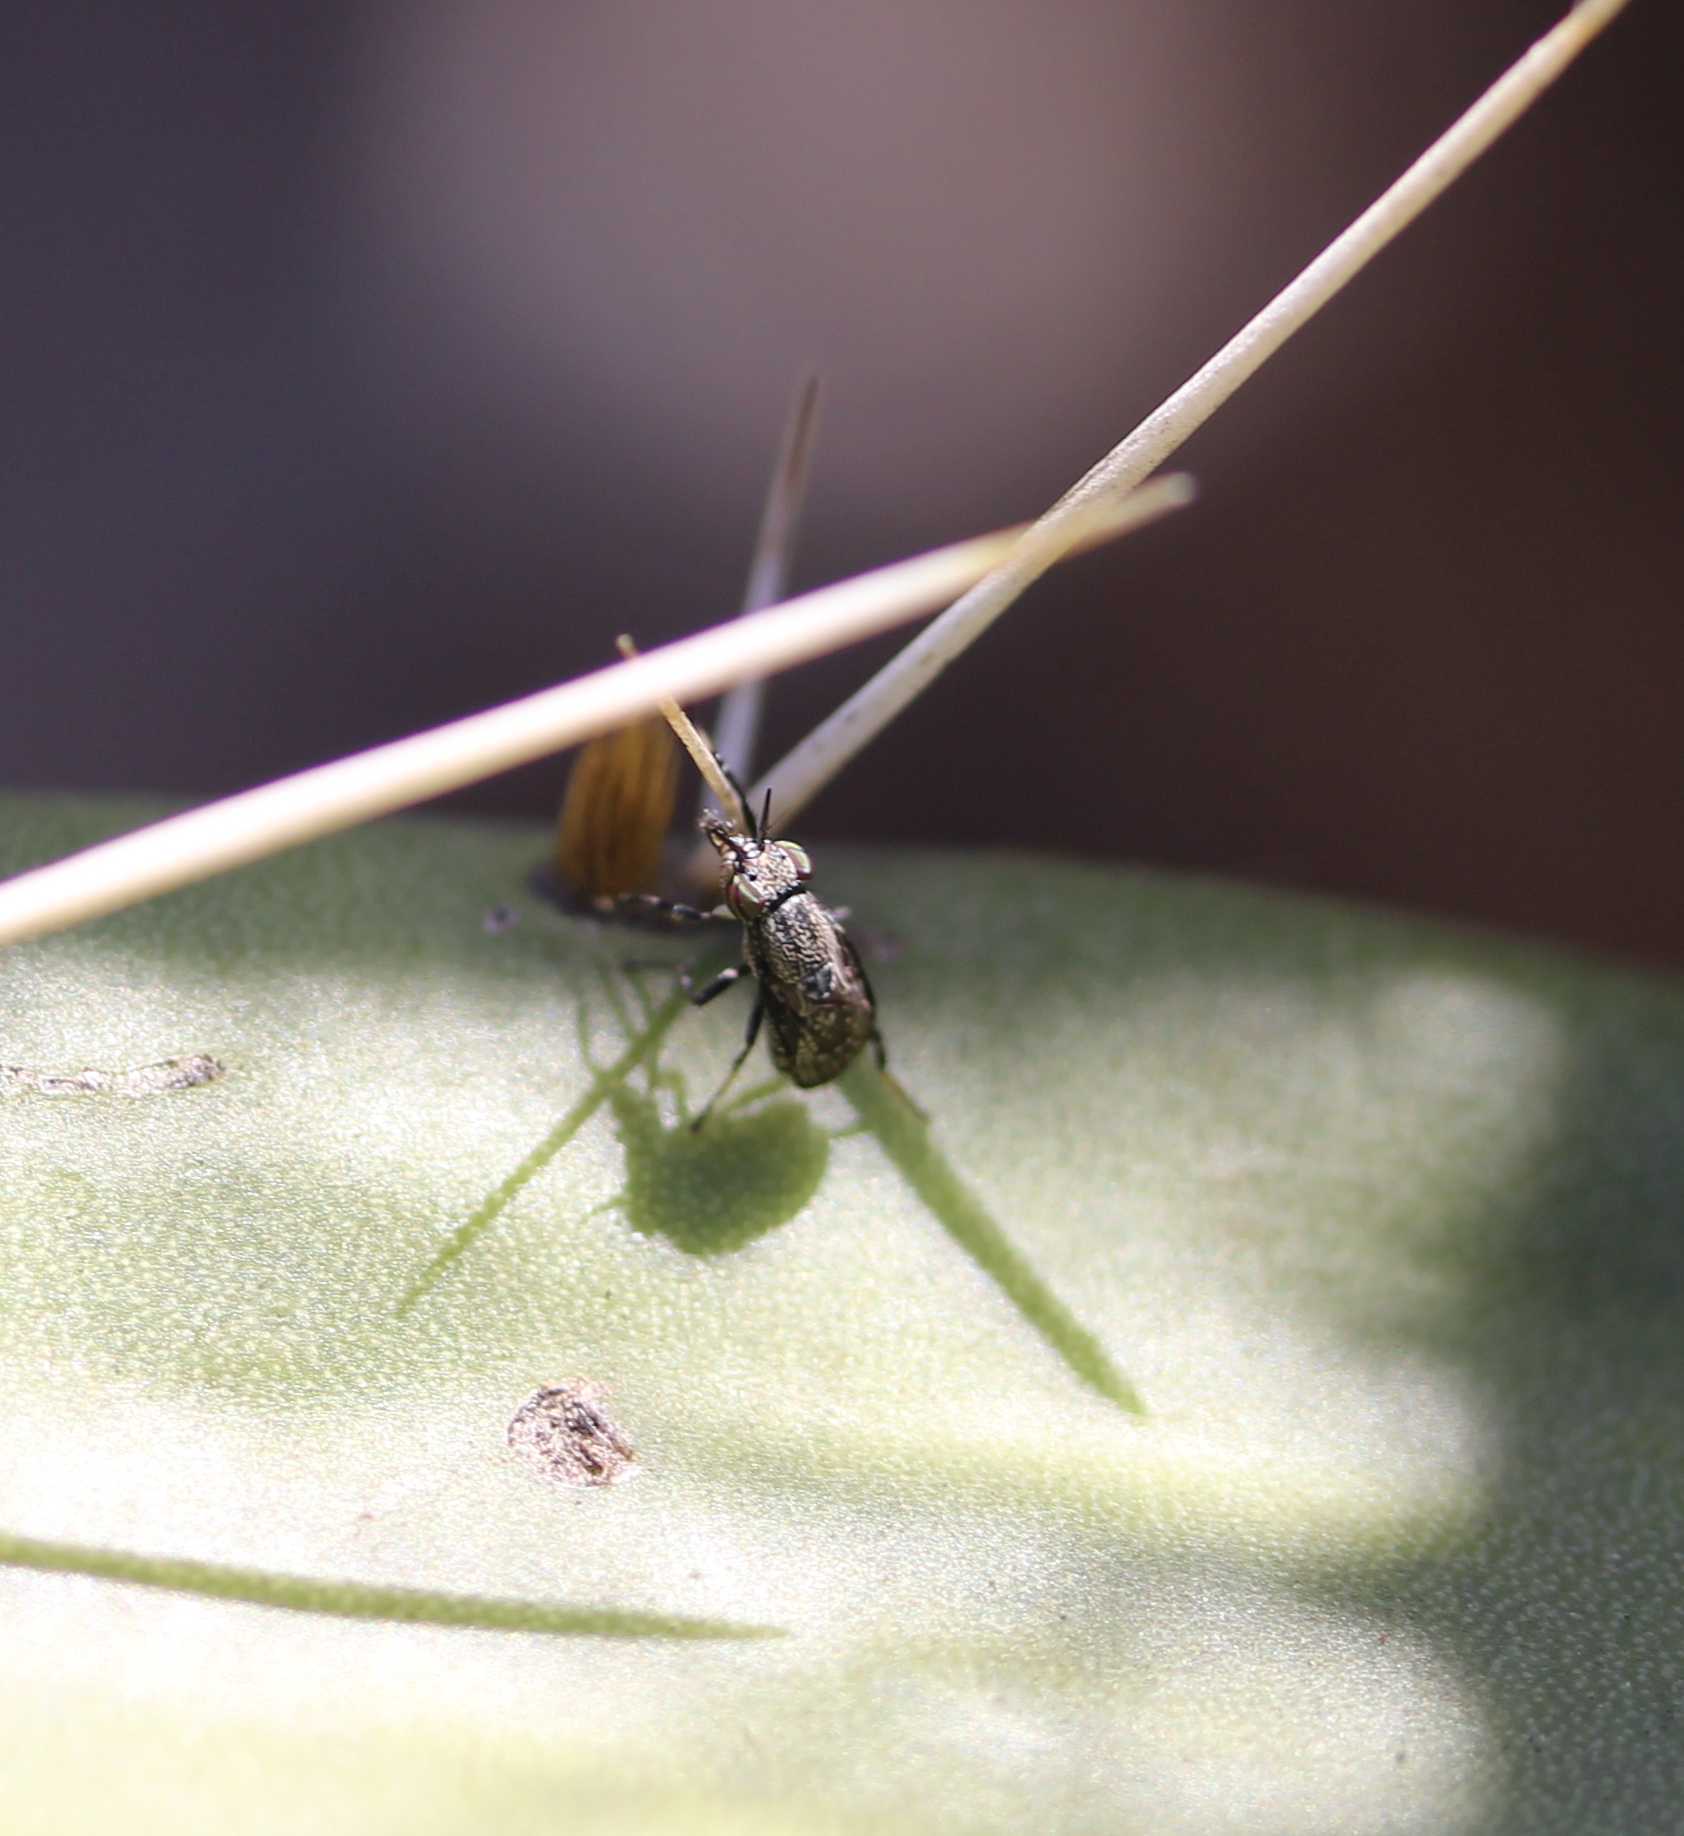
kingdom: Animalia
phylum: Arthropoda
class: Insecta
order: Diptera
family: Ulidiidae
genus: Stictomyia
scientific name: Stictomyia longicornis
